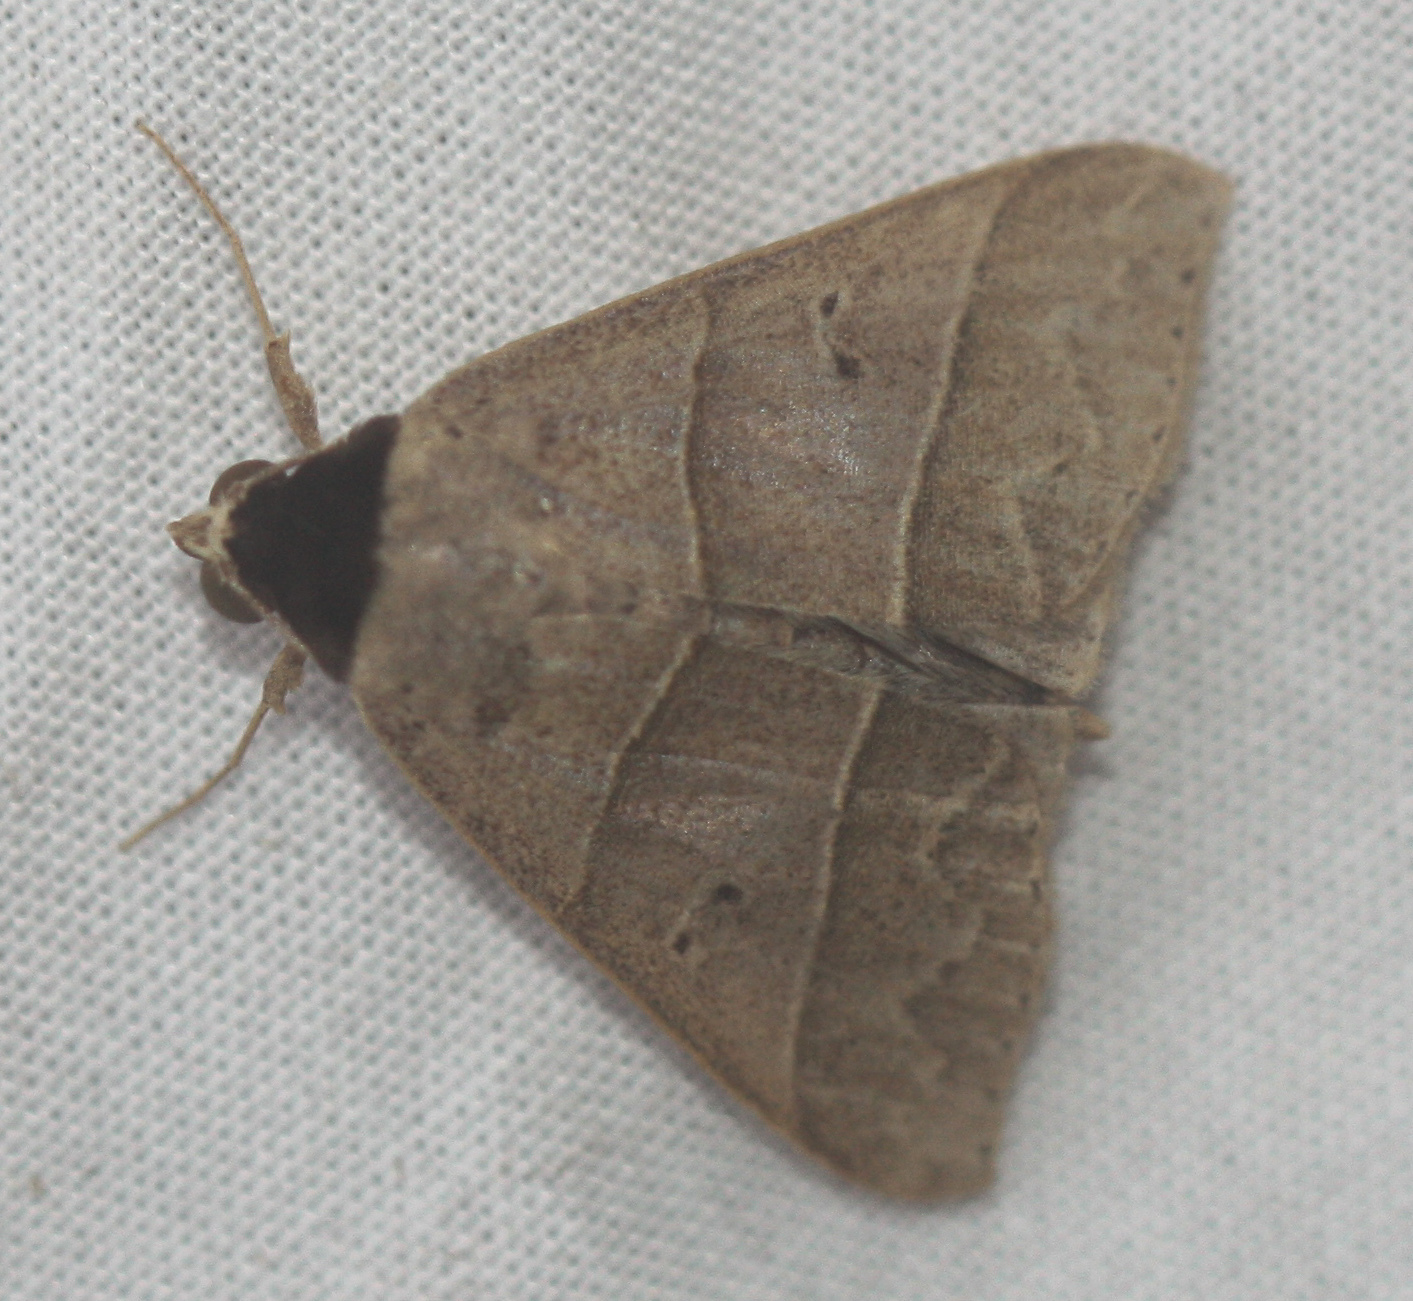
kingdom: Animalia
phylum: Arthropoda
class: Insecta
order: Lepidoptera
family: Erebidae
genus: Baniana
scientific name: Baniana ostia
